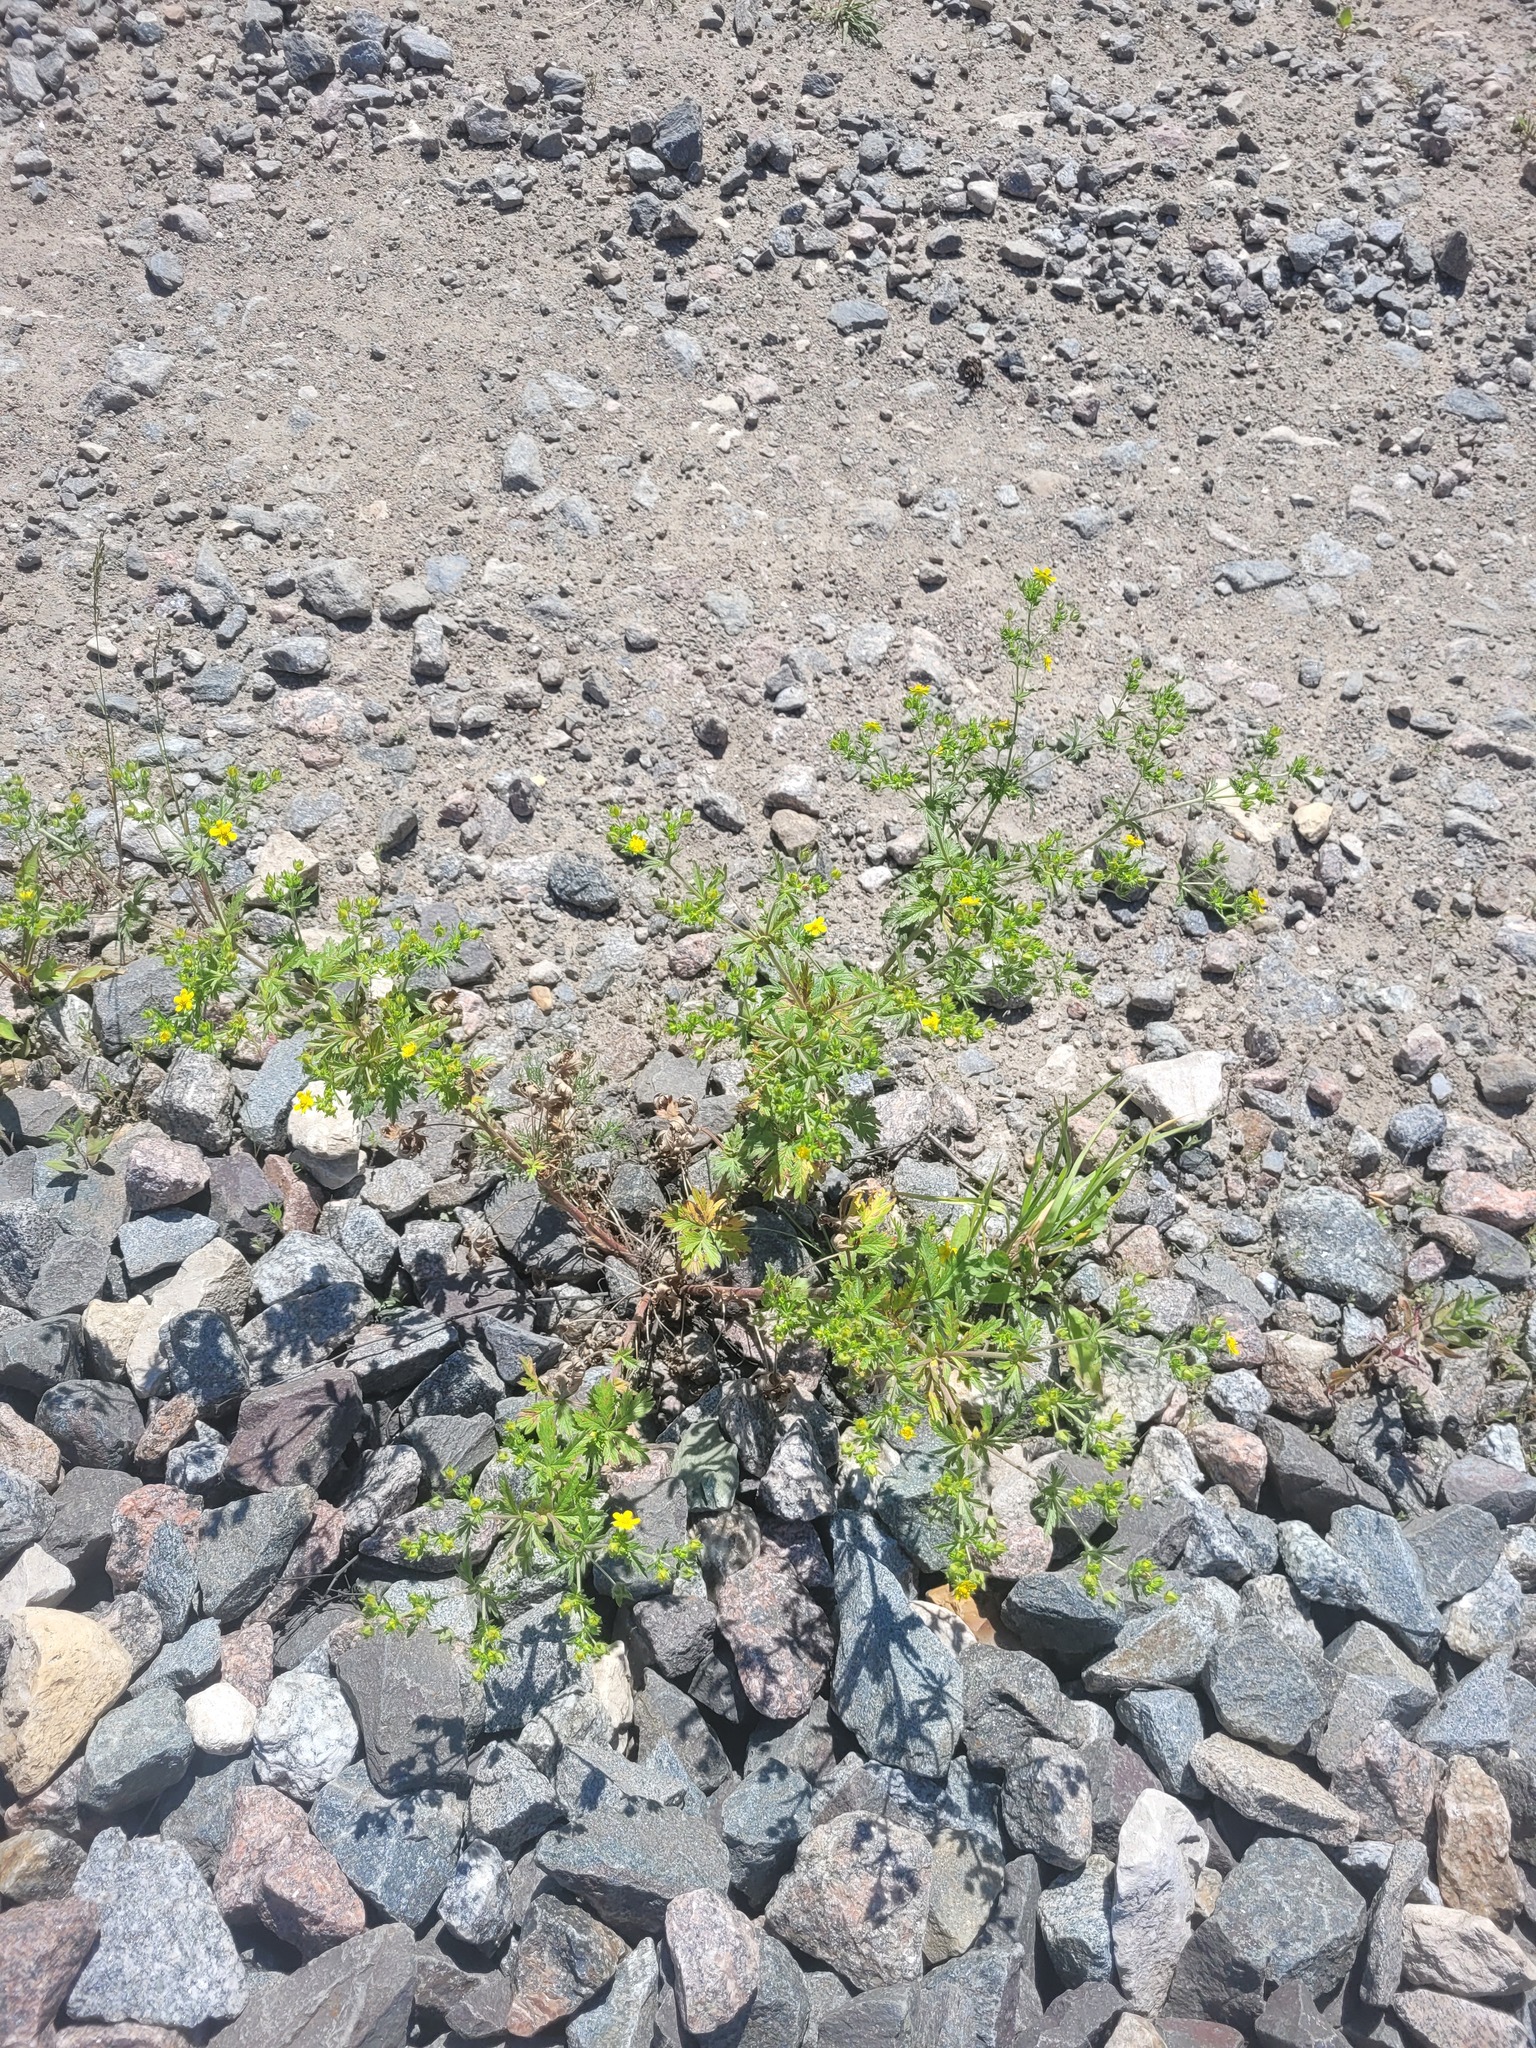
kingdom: Plantae
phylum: Tracheophyta
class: Magnoliopsida
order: Rosales
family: Rosaceae
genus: Potentilla
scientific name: Potentilla intermedia
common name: Downy cinquefoil
